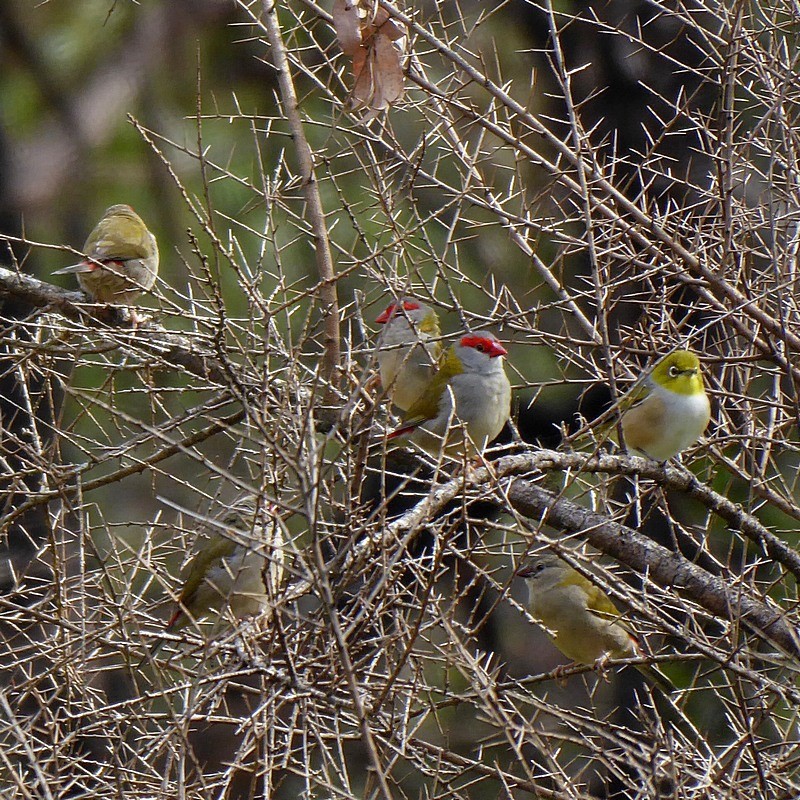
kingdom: Animalia
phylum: Chordata
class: Aves
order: Passeriformes
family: Estrildidae
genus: Neochmia
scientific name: Neochmia temporalis
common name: Red-browed finch
